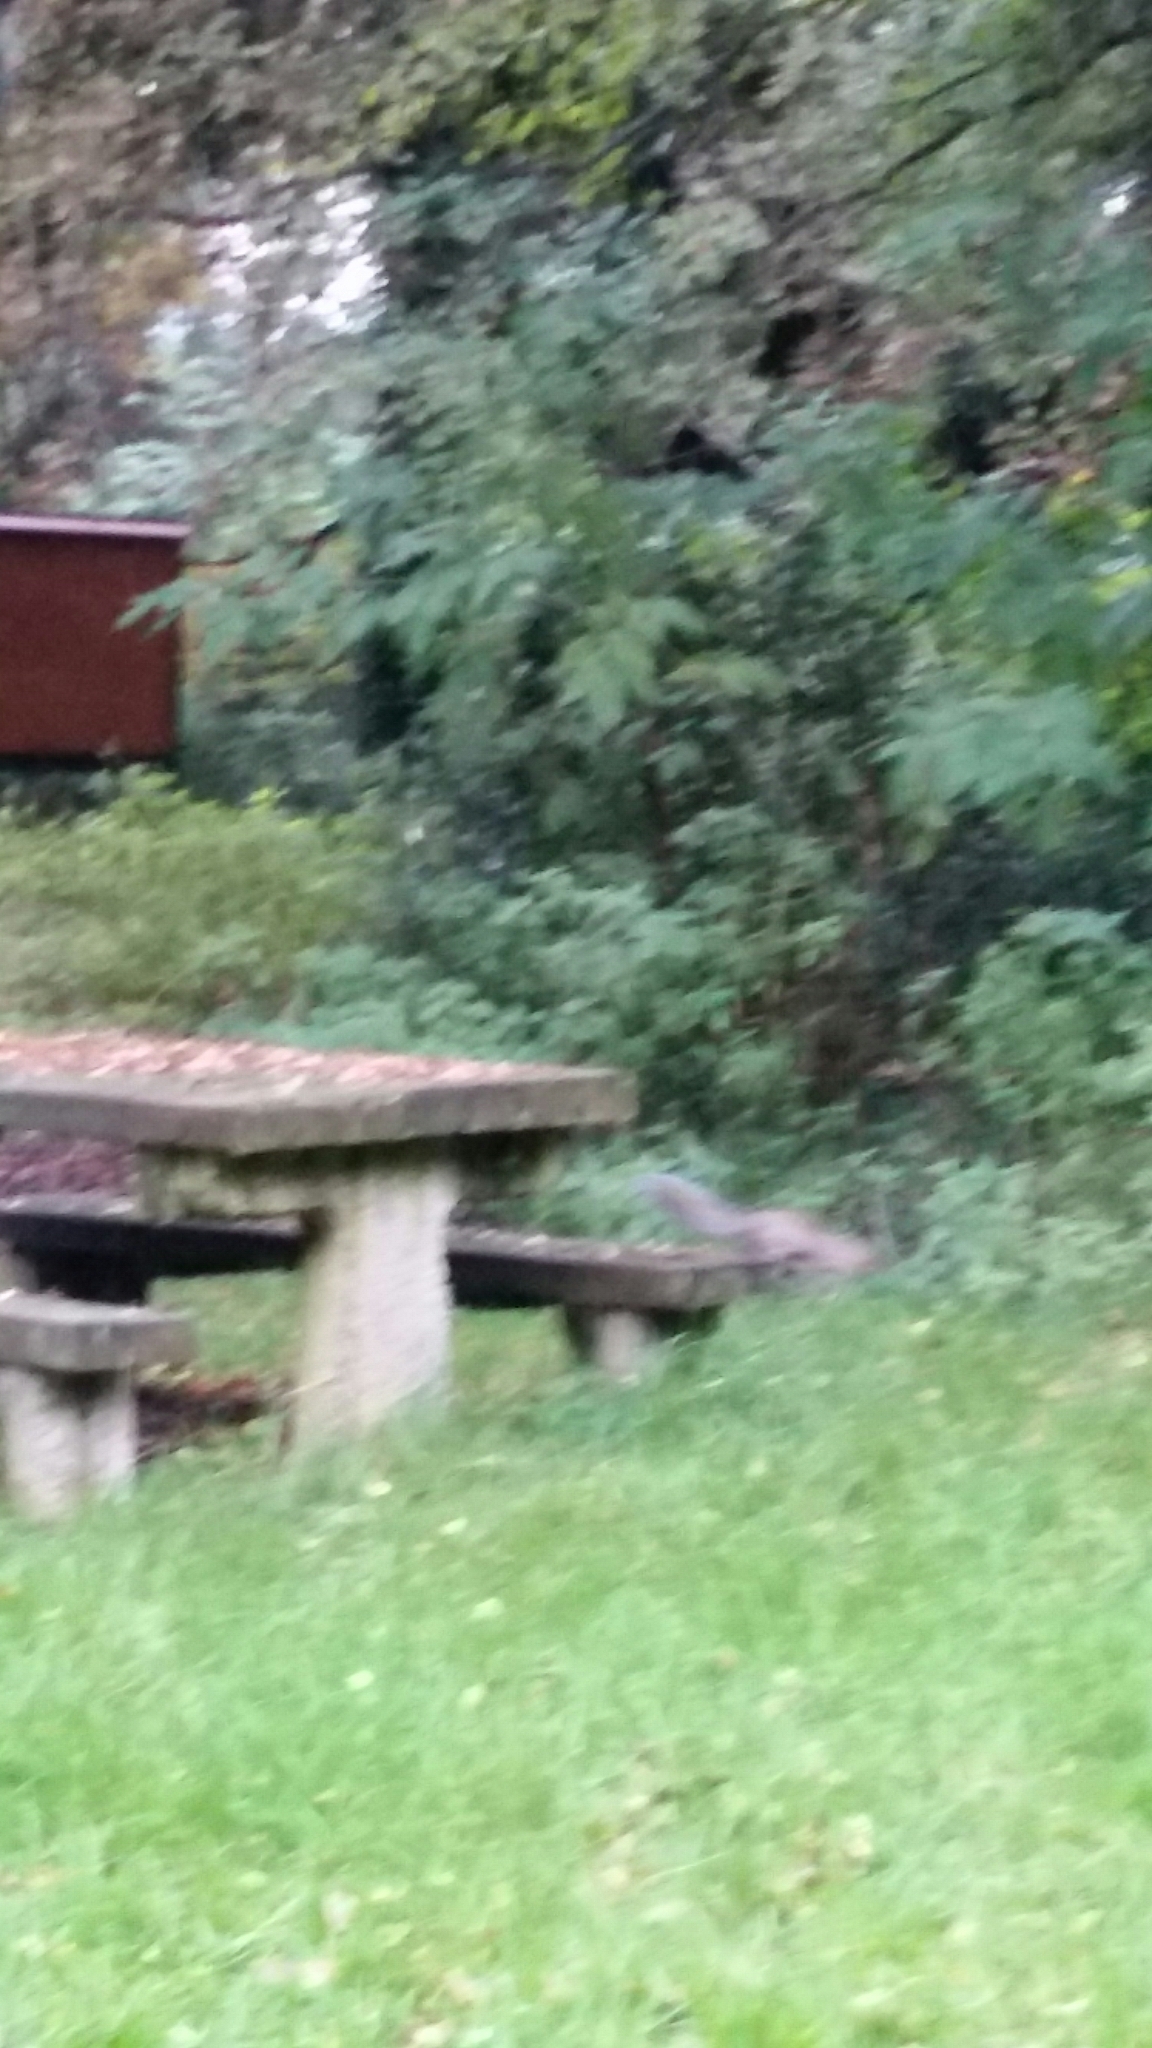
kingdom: Animalia
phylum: Chordata
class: Mammalia
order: Rodentia
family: Sciuridae
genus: Sciurus
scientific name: Sciurus carolinensis
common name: Eastern gray squirrel
